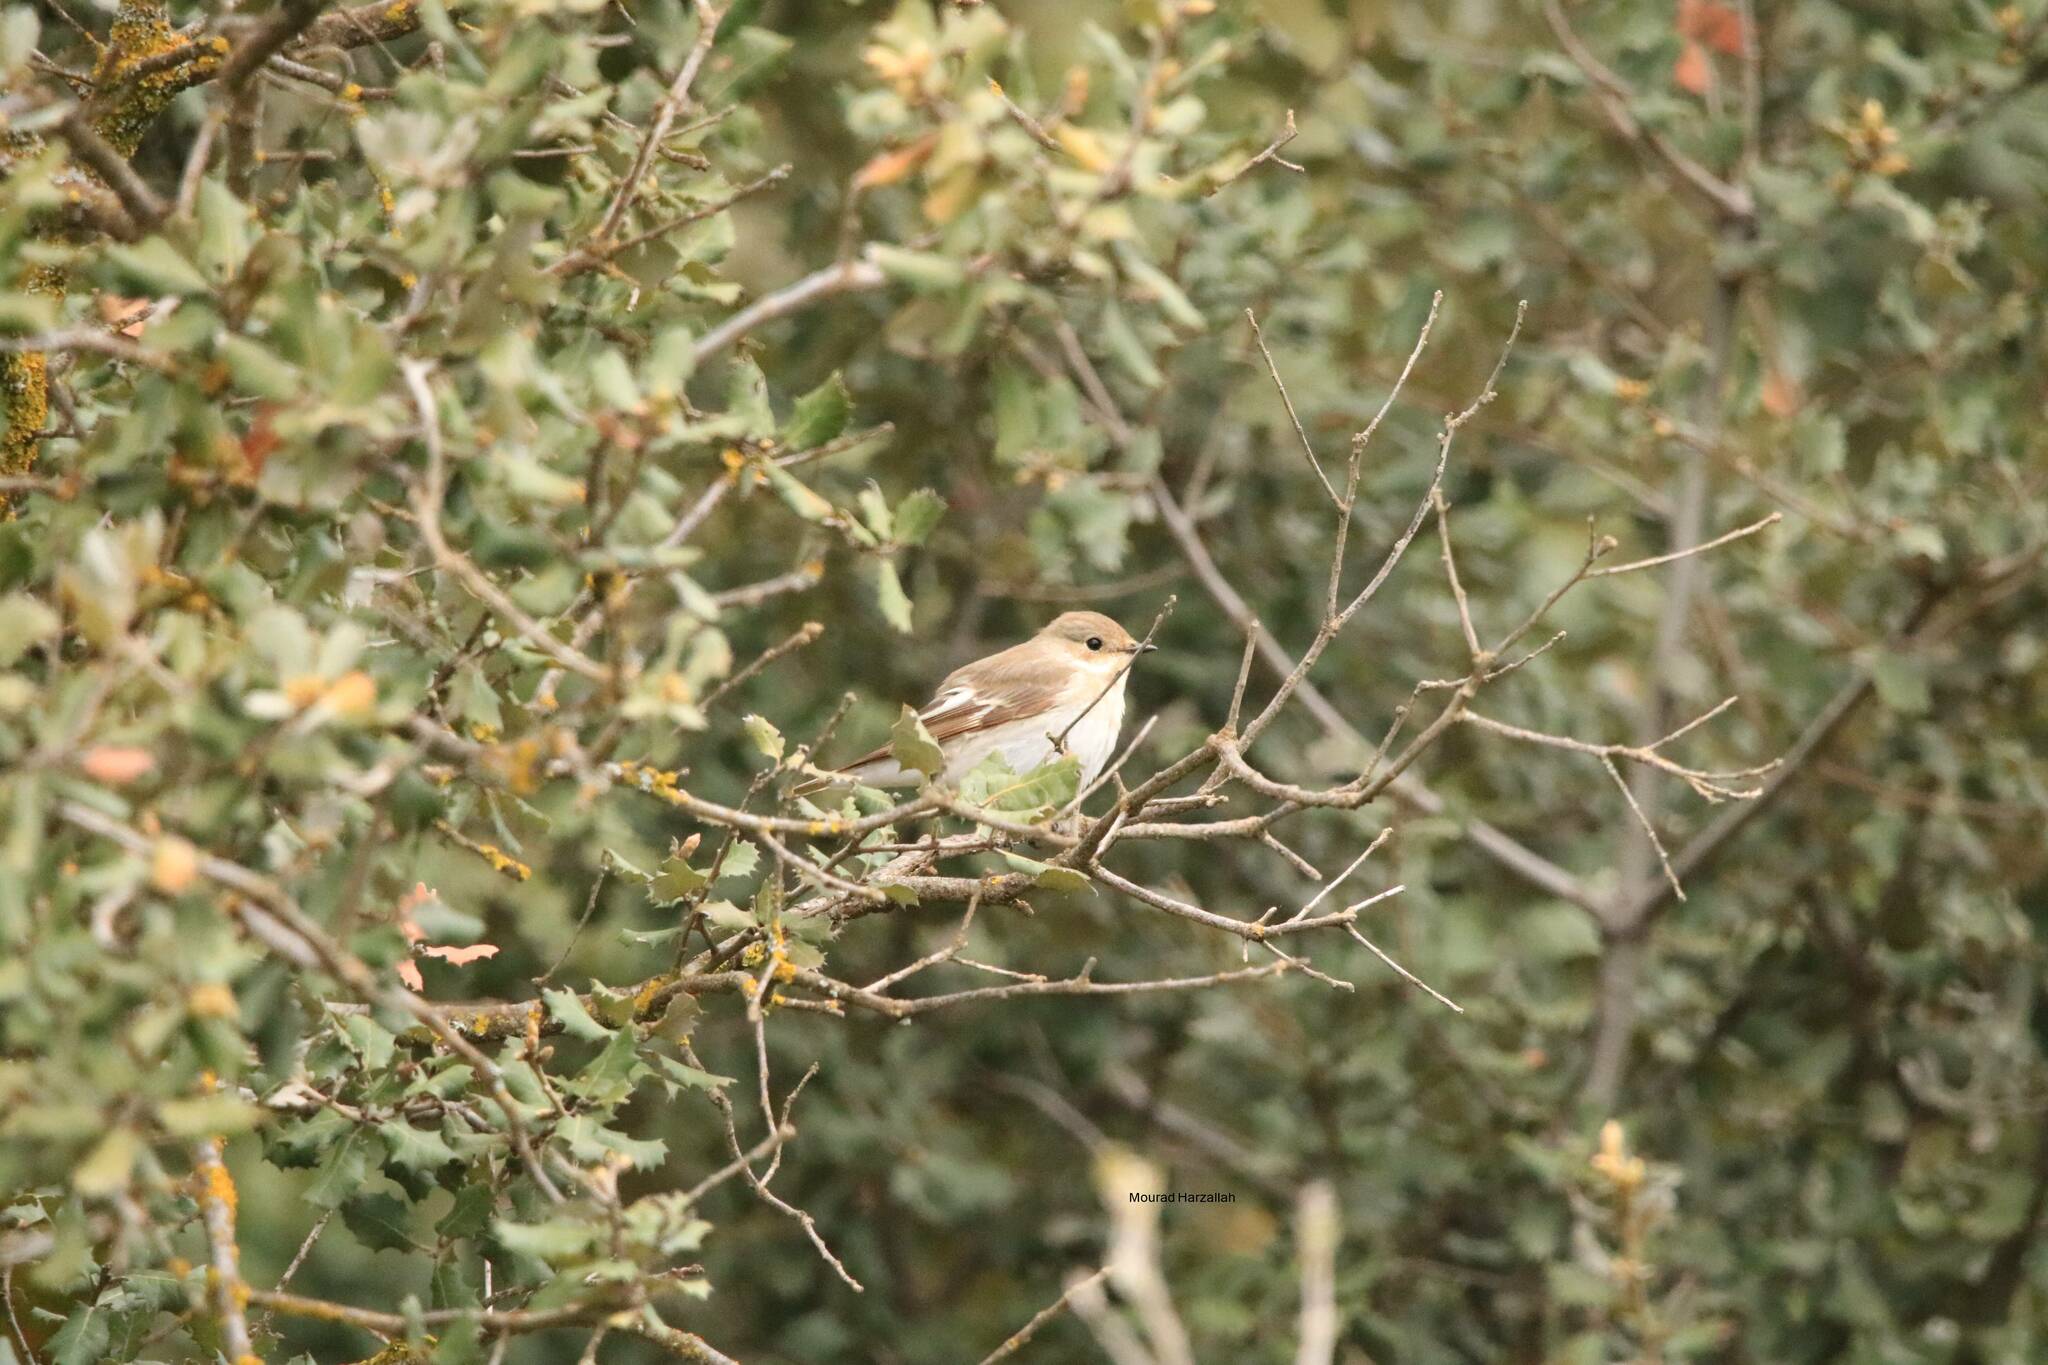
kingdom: Animalia
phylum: Chordata
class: Aves
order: Passeriformes
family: Muscicapidae
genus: Ficedula
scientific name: Ficedula hypoleuca
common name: European pied flycatcher
